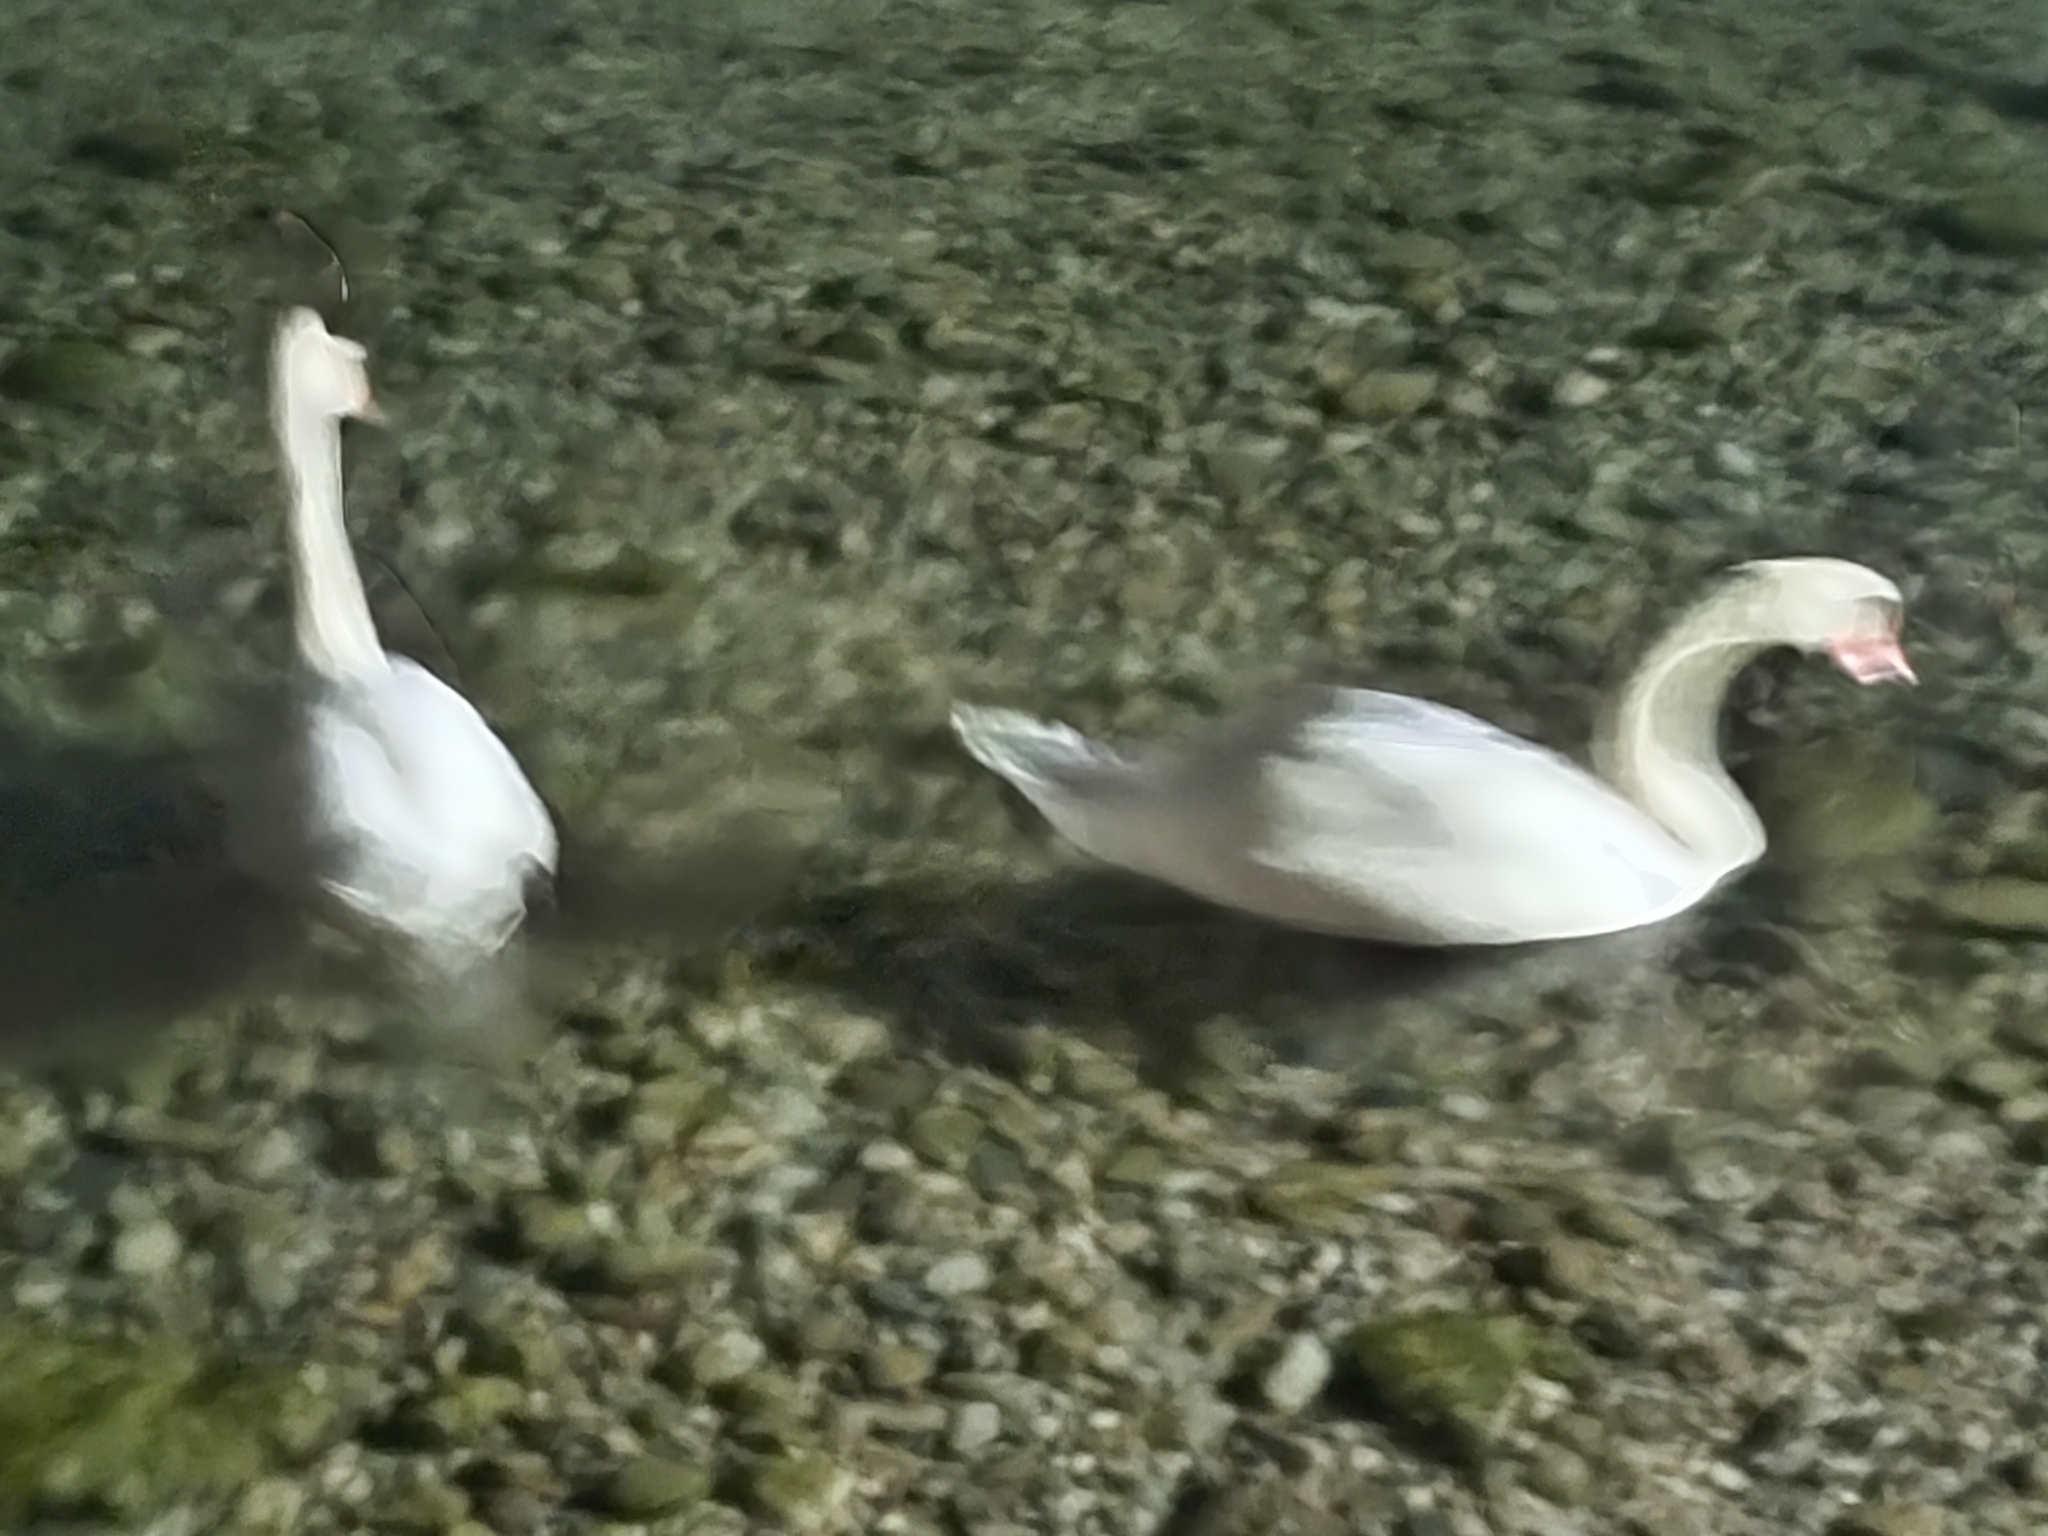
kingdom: Animalia
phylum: Chordata
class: Aves
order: Anseriformes
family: Anatidae
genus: Cygnus
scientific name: Cygnus olor
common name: Mute swan
